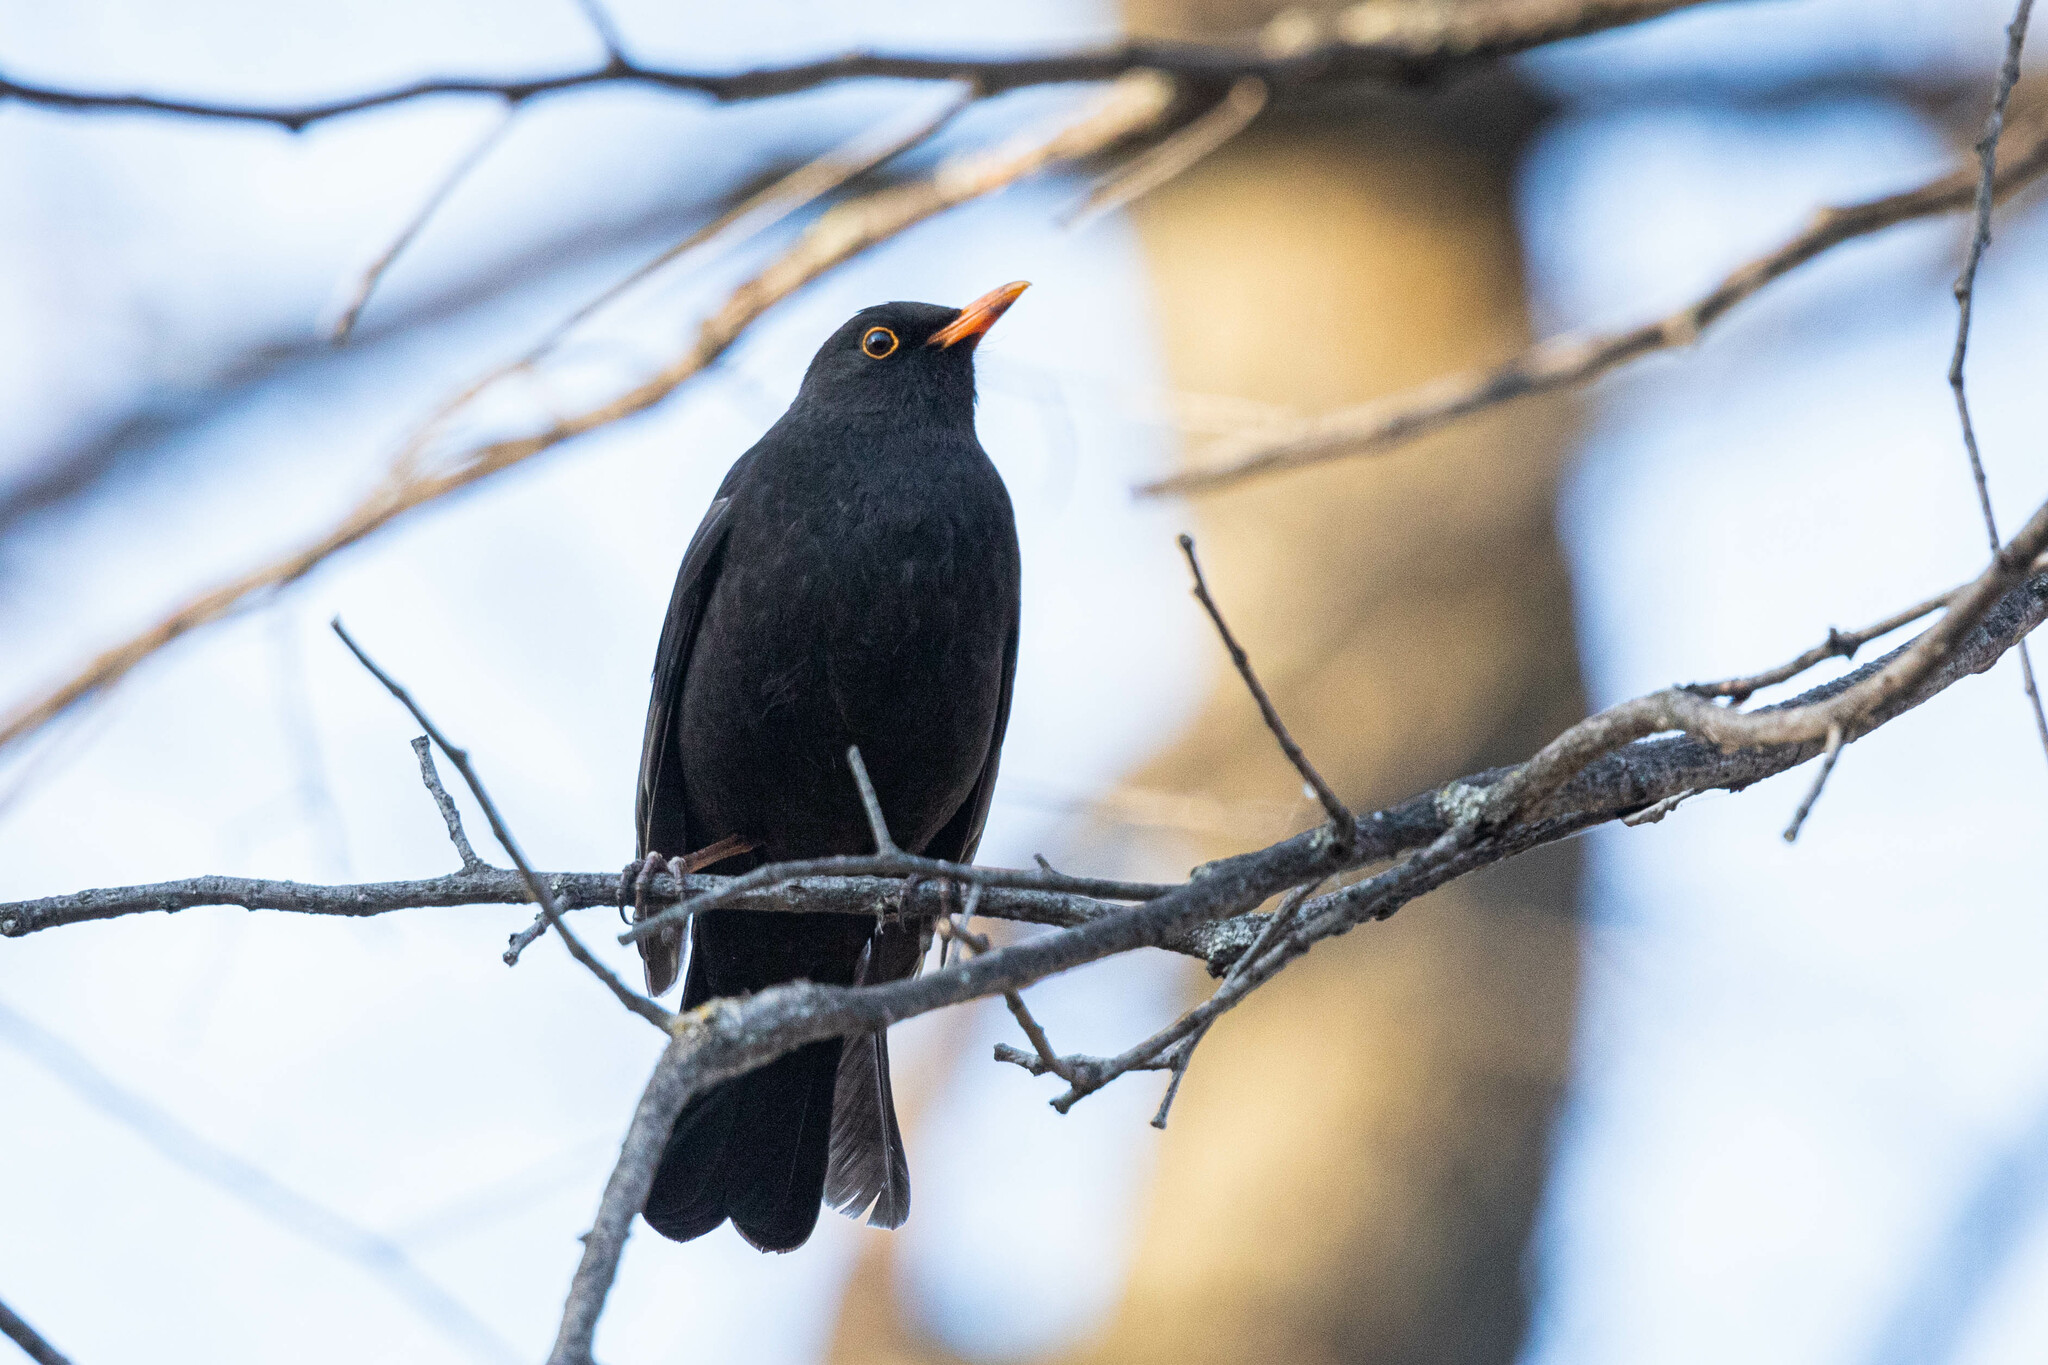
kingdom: Animalia
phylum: Chordata
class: Aves
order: Passeriformes
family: Turdidae
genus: Turdus
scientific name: Turdus merula
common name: Common blackbird
